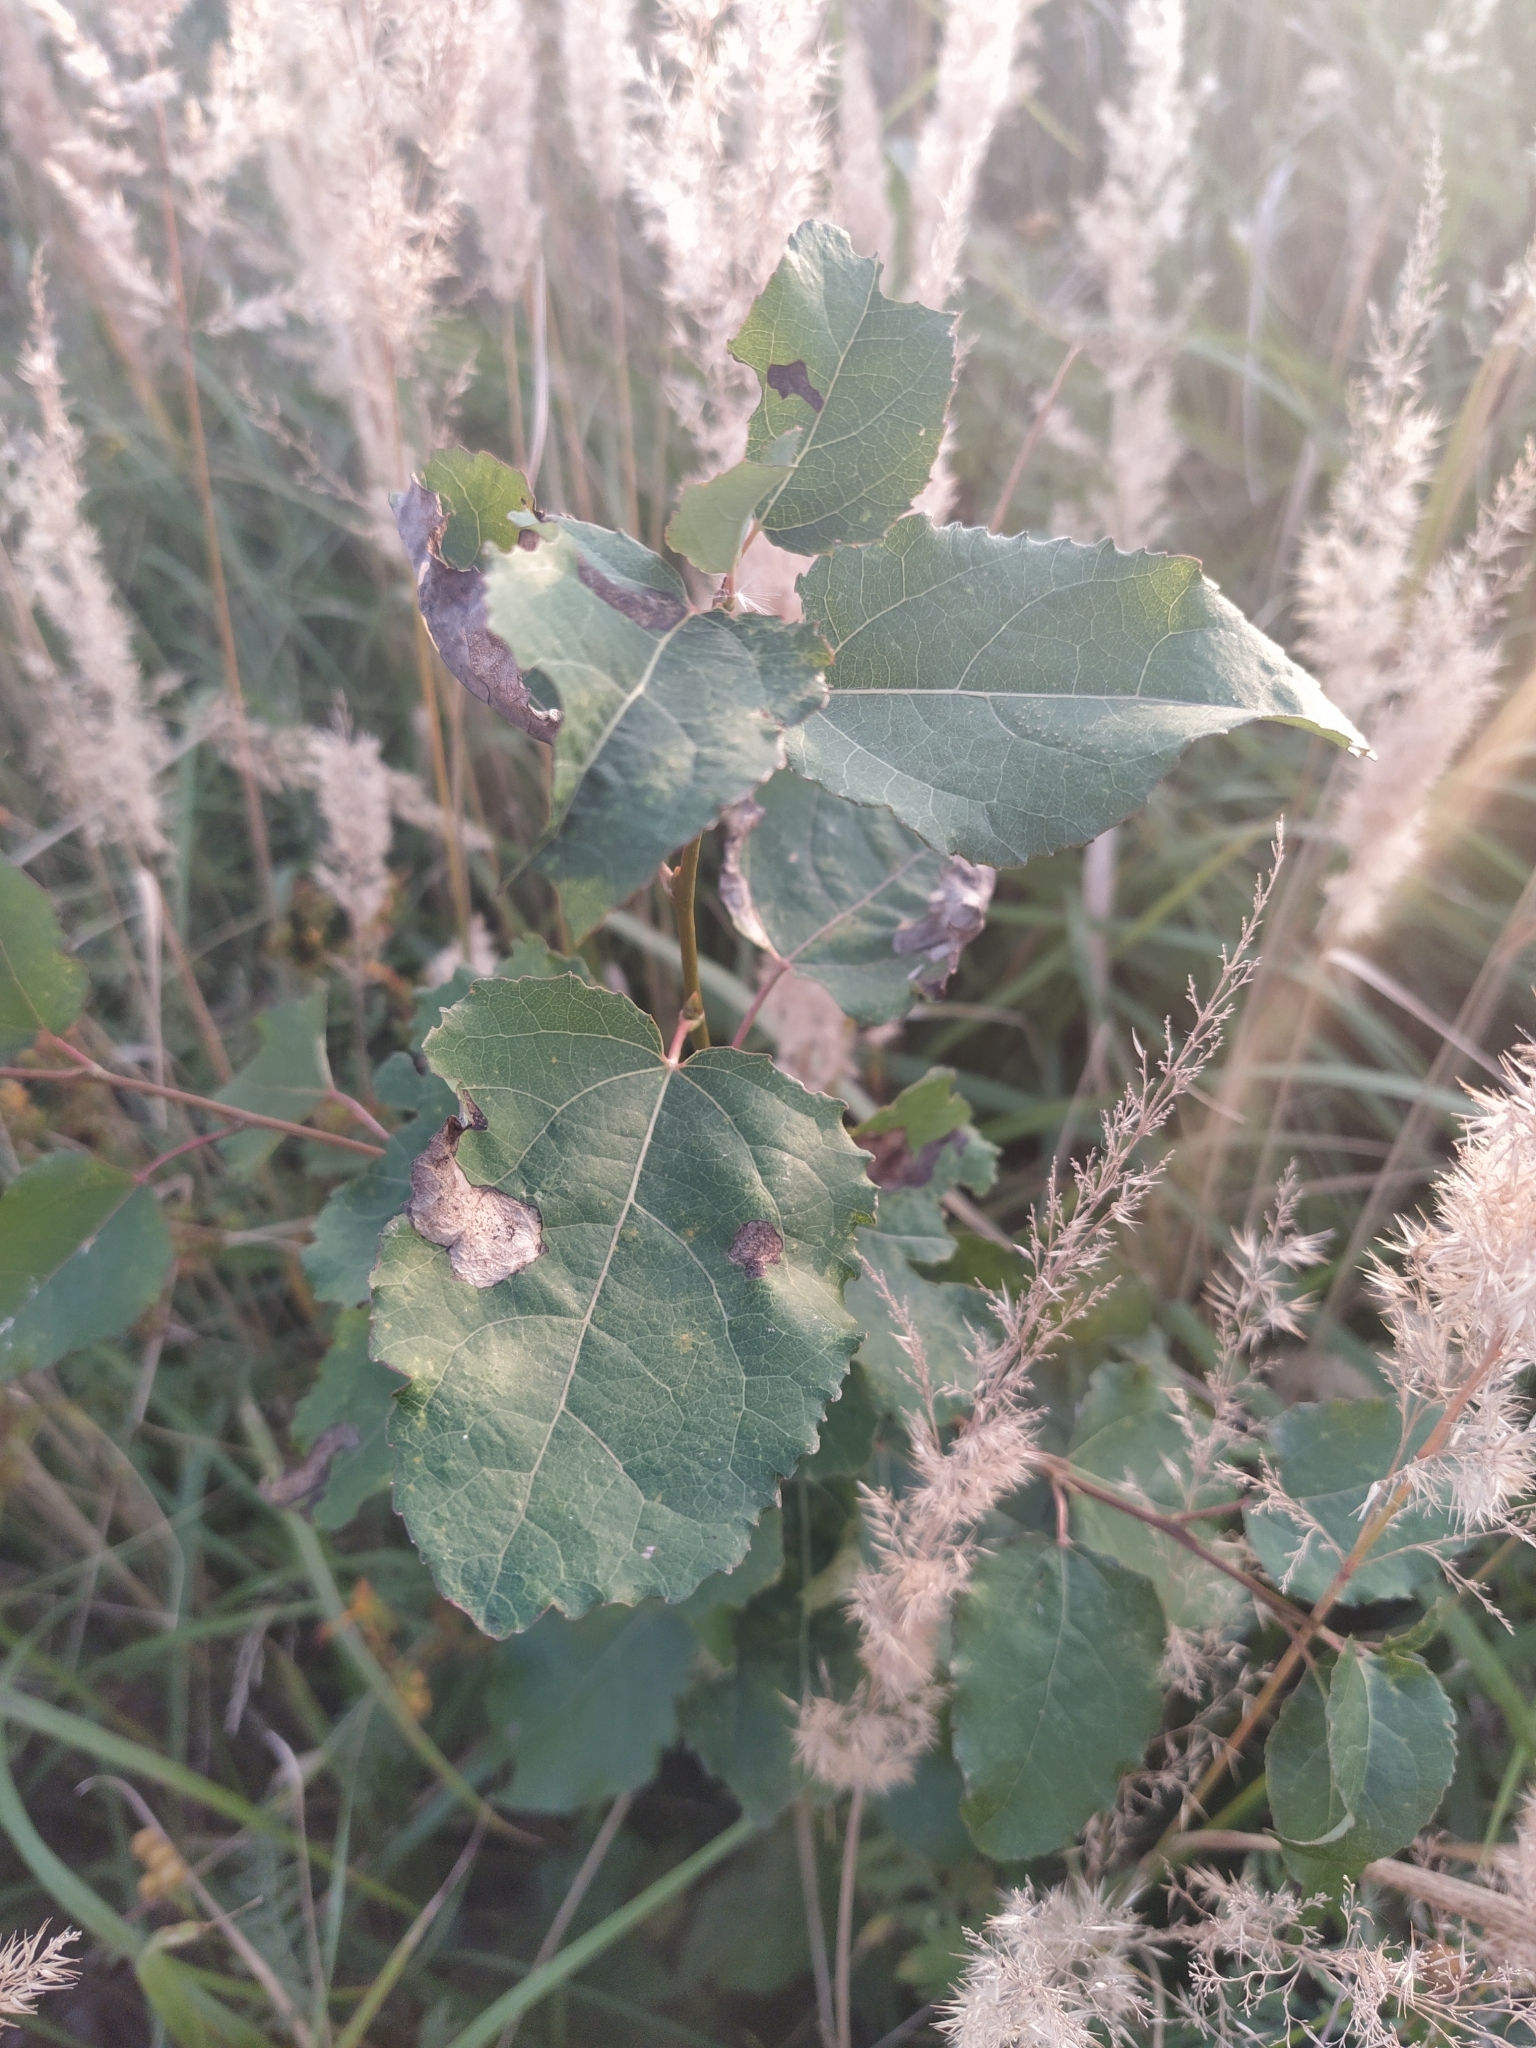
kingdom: Plantae
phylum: Tracheophyta
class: Magnoliopsida
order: Malpighiales
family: Salicaceae
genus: Populus
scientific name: Populus tremula
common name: European aspen
